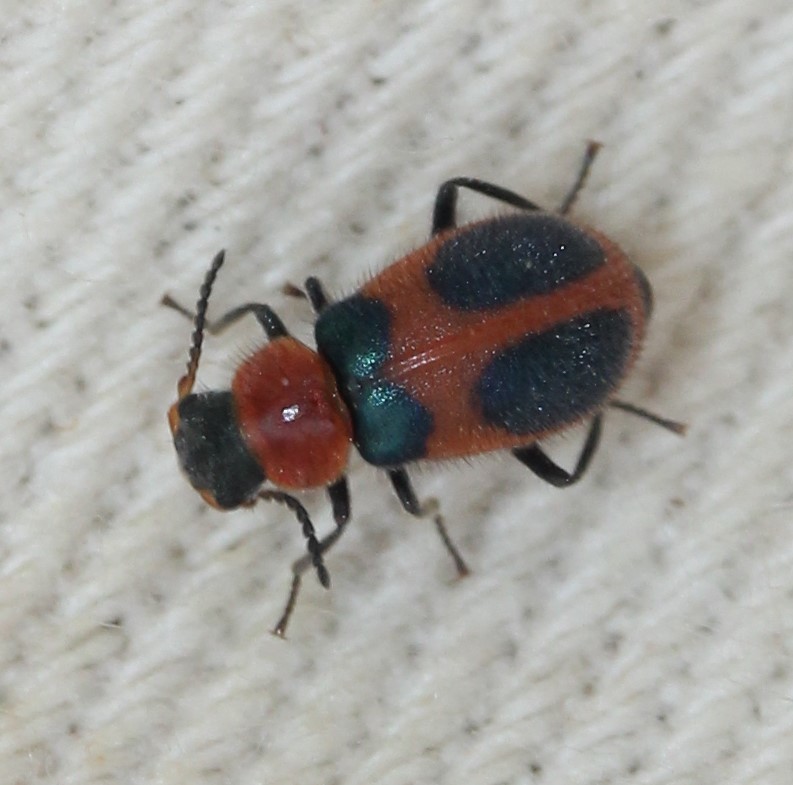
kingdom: Animalia
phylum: Arthropoda
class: Insecta
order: Coleoptera
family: Melyridae
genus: Collops
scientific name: Collops quadrimaculatus
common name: Four-spotted collops
